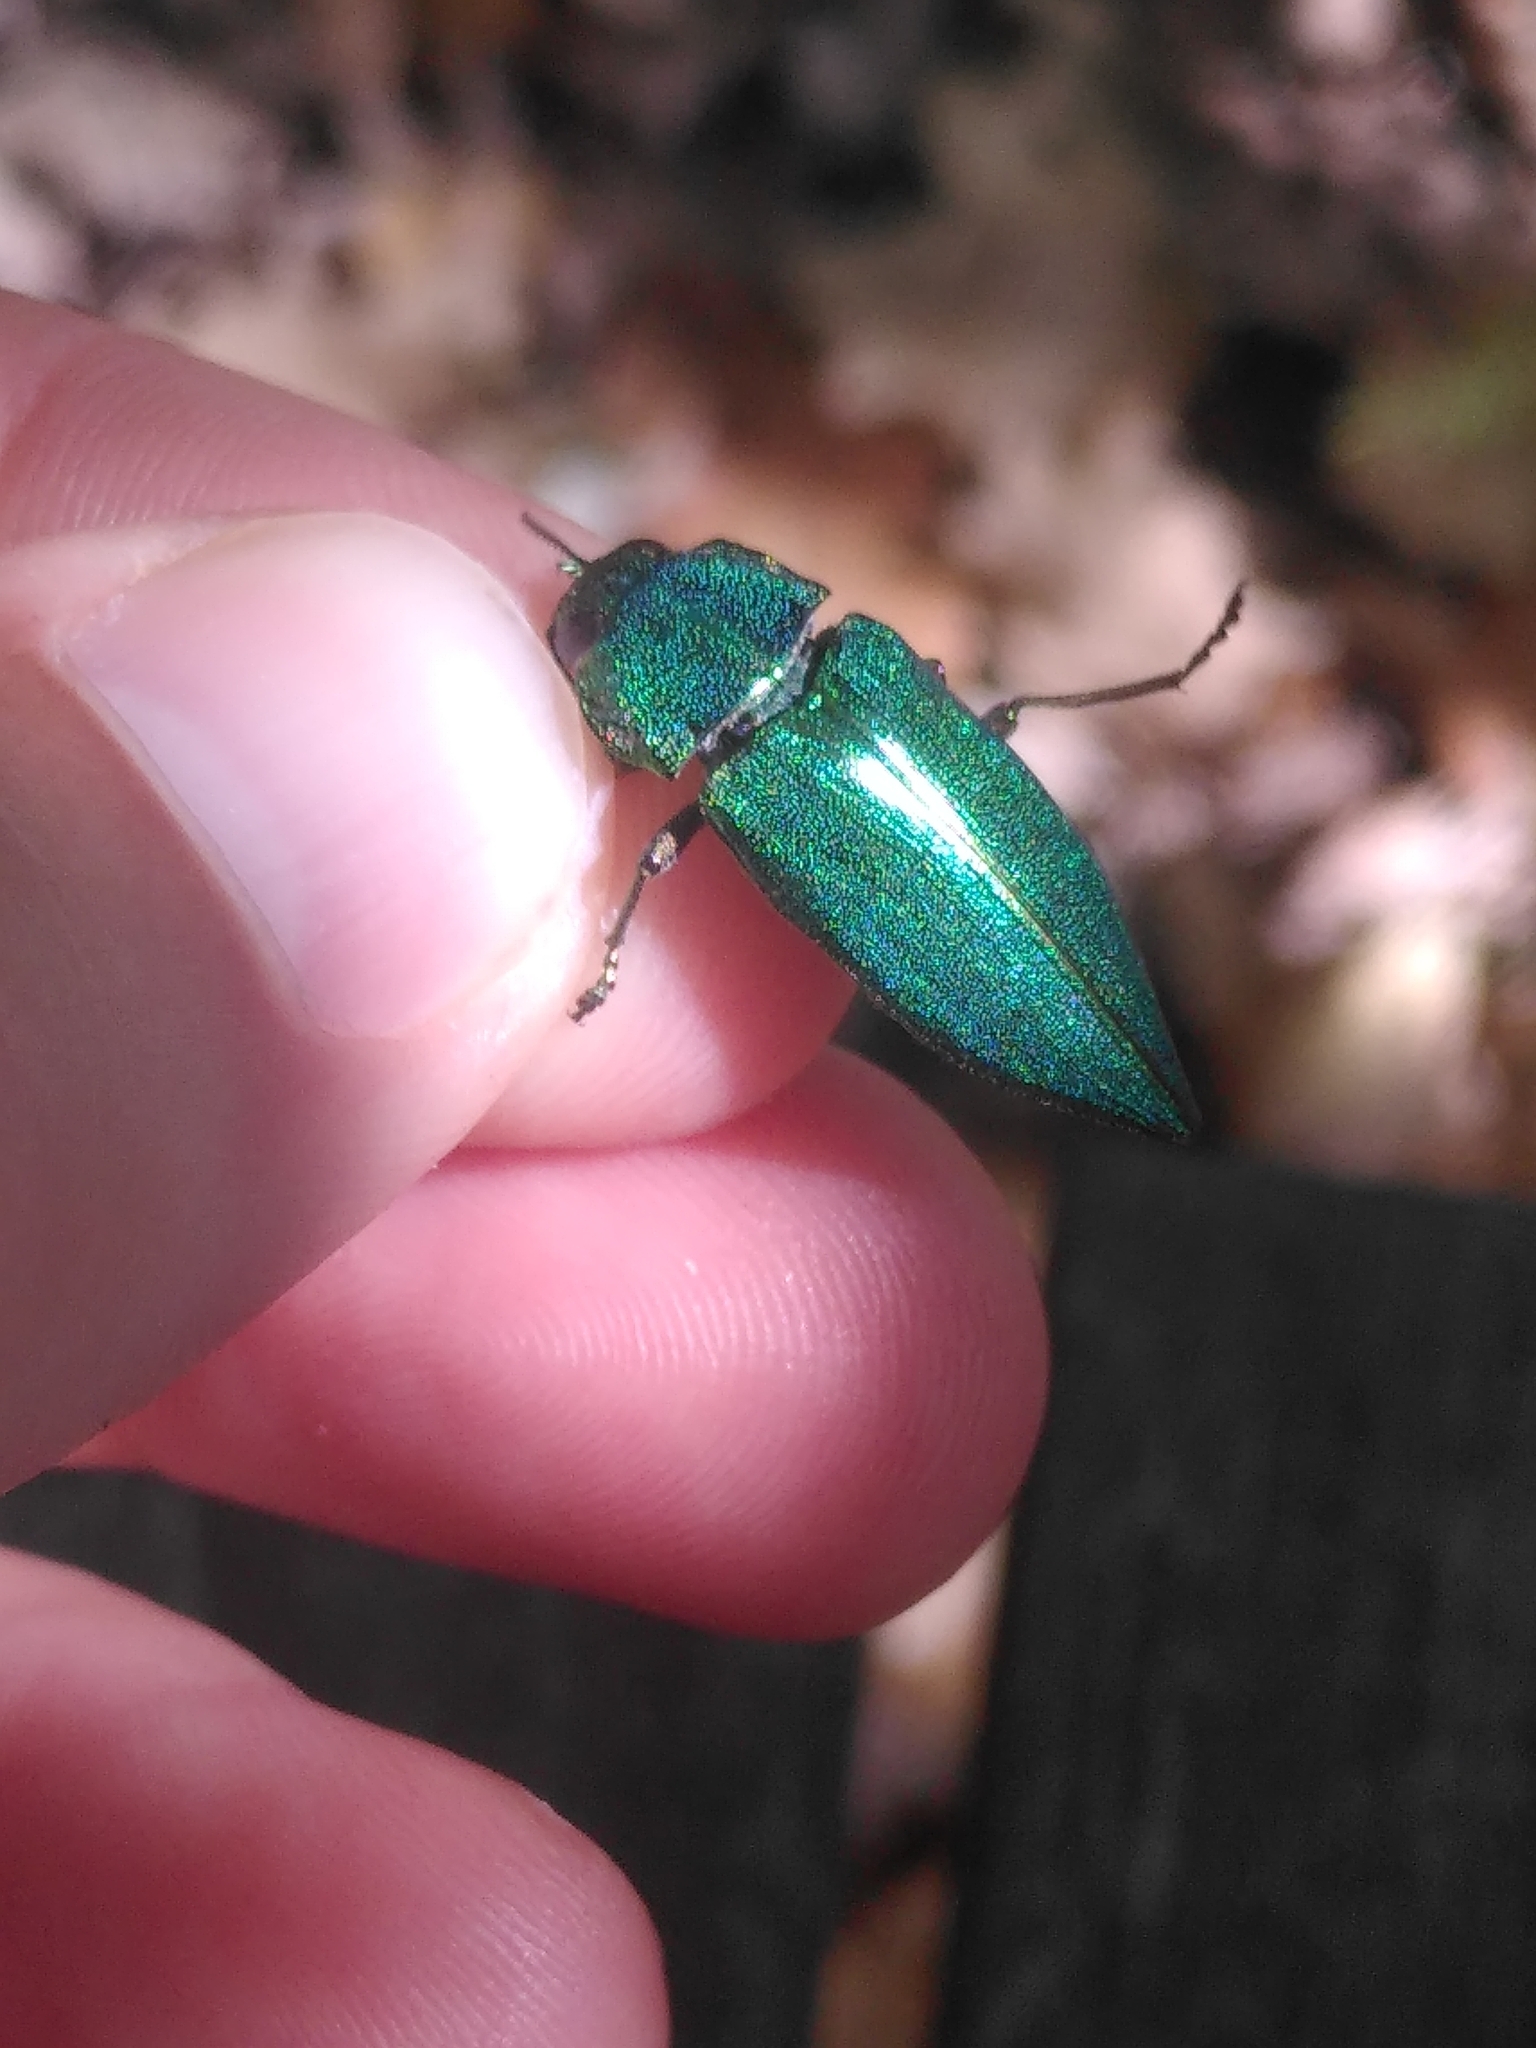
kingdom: Animalia
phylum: Arthropoda
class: Insecta
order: Coleoptera
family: Buprestidae
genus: Latipalpis
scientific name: Latipalpis plana
